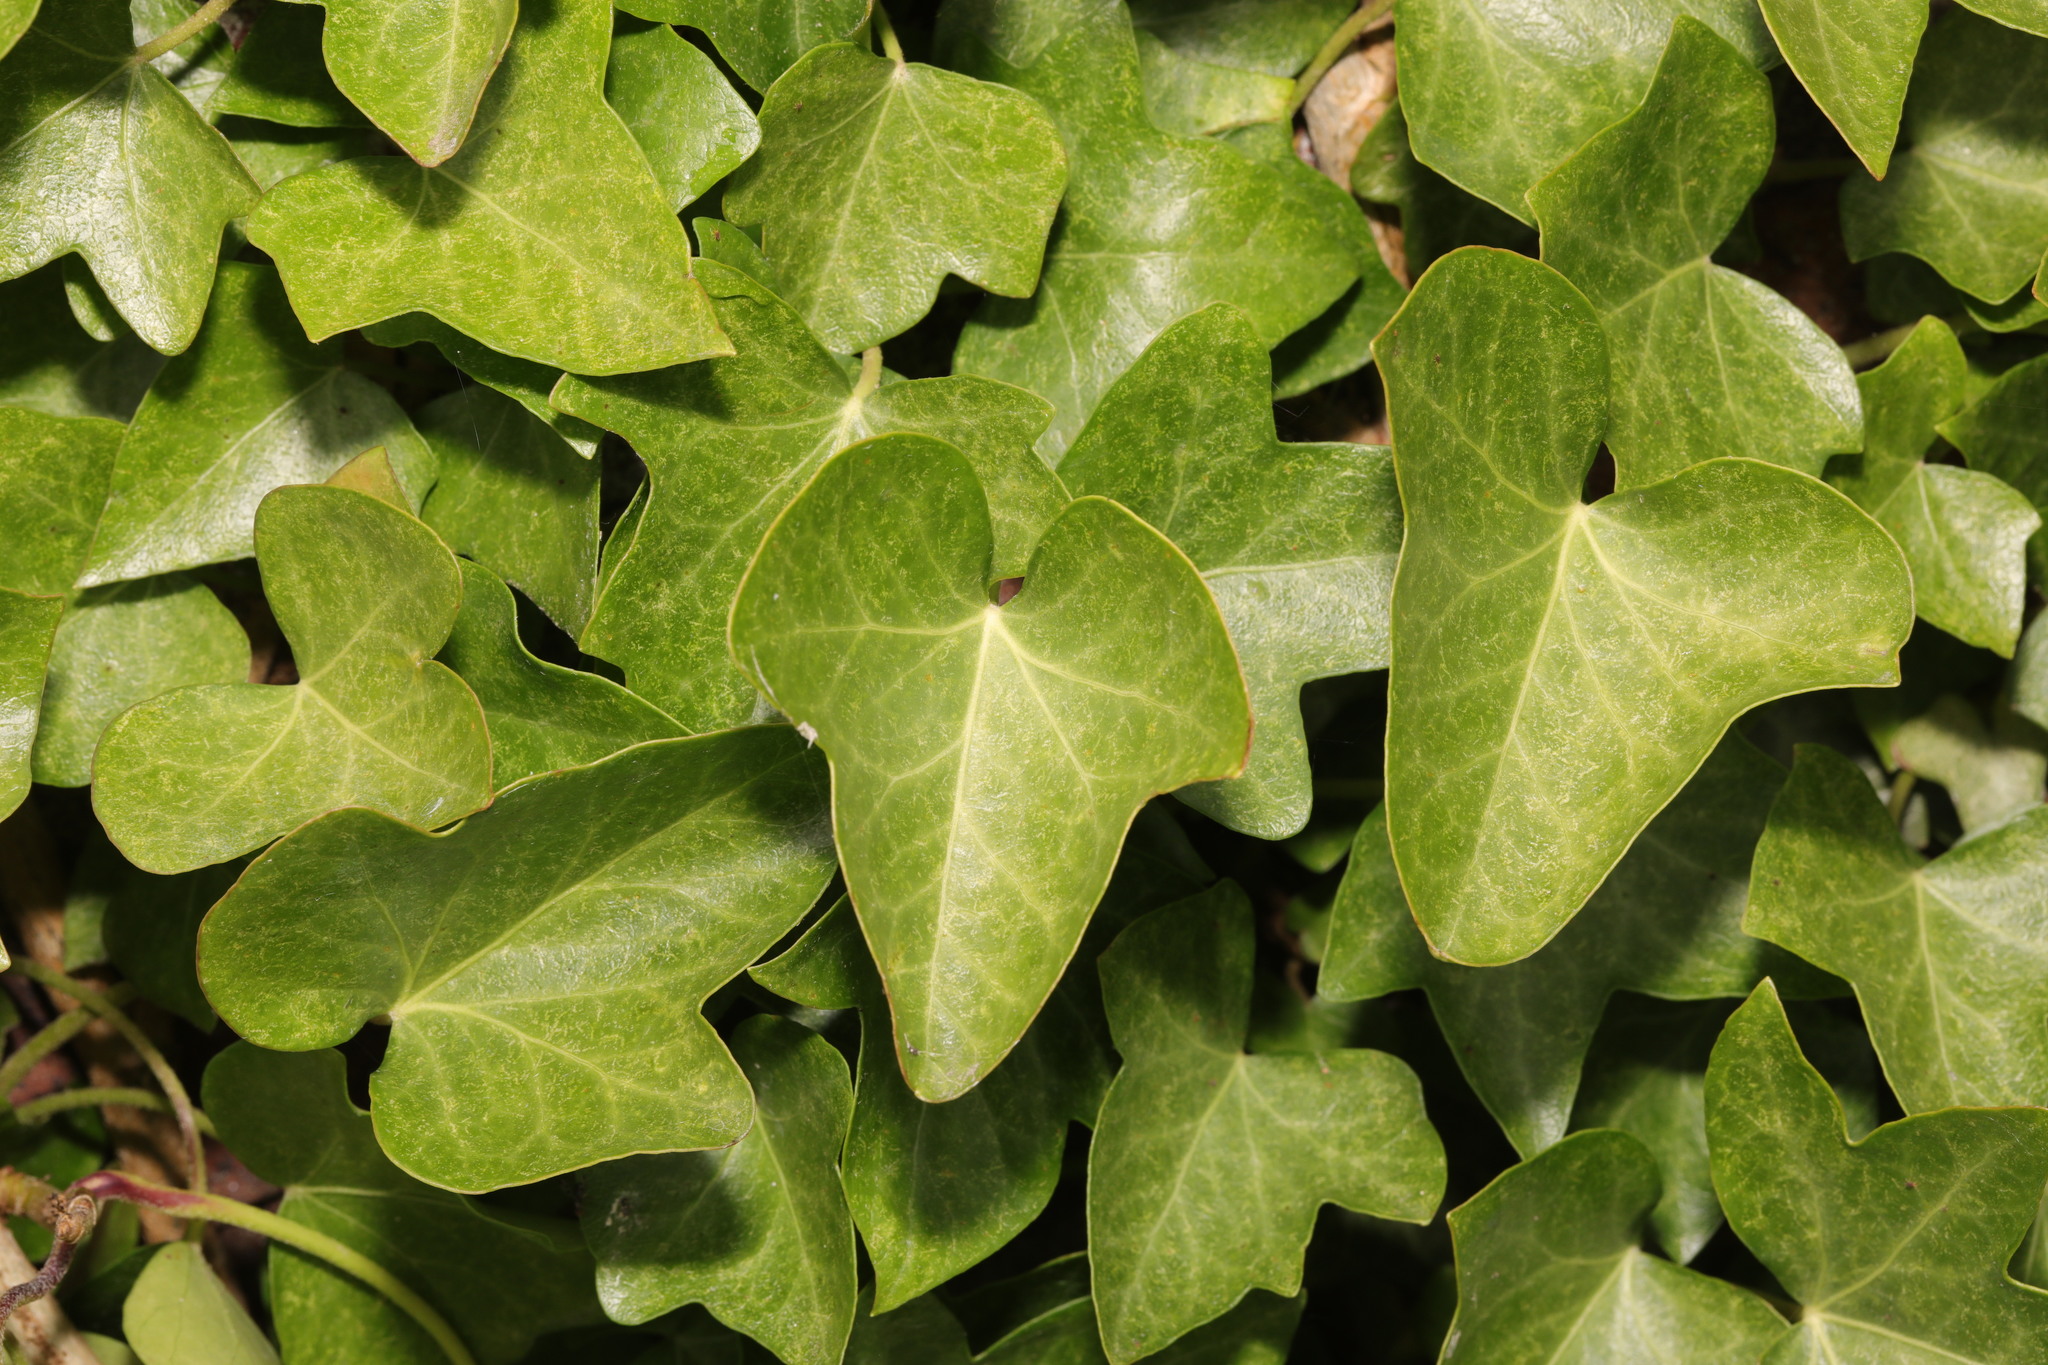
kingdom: Plantae
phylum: Tracheophyta
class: Magnoliopsida
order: Apiales
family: Araliaceae
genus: Hedera
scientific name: Hedera helix
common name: Ivy
